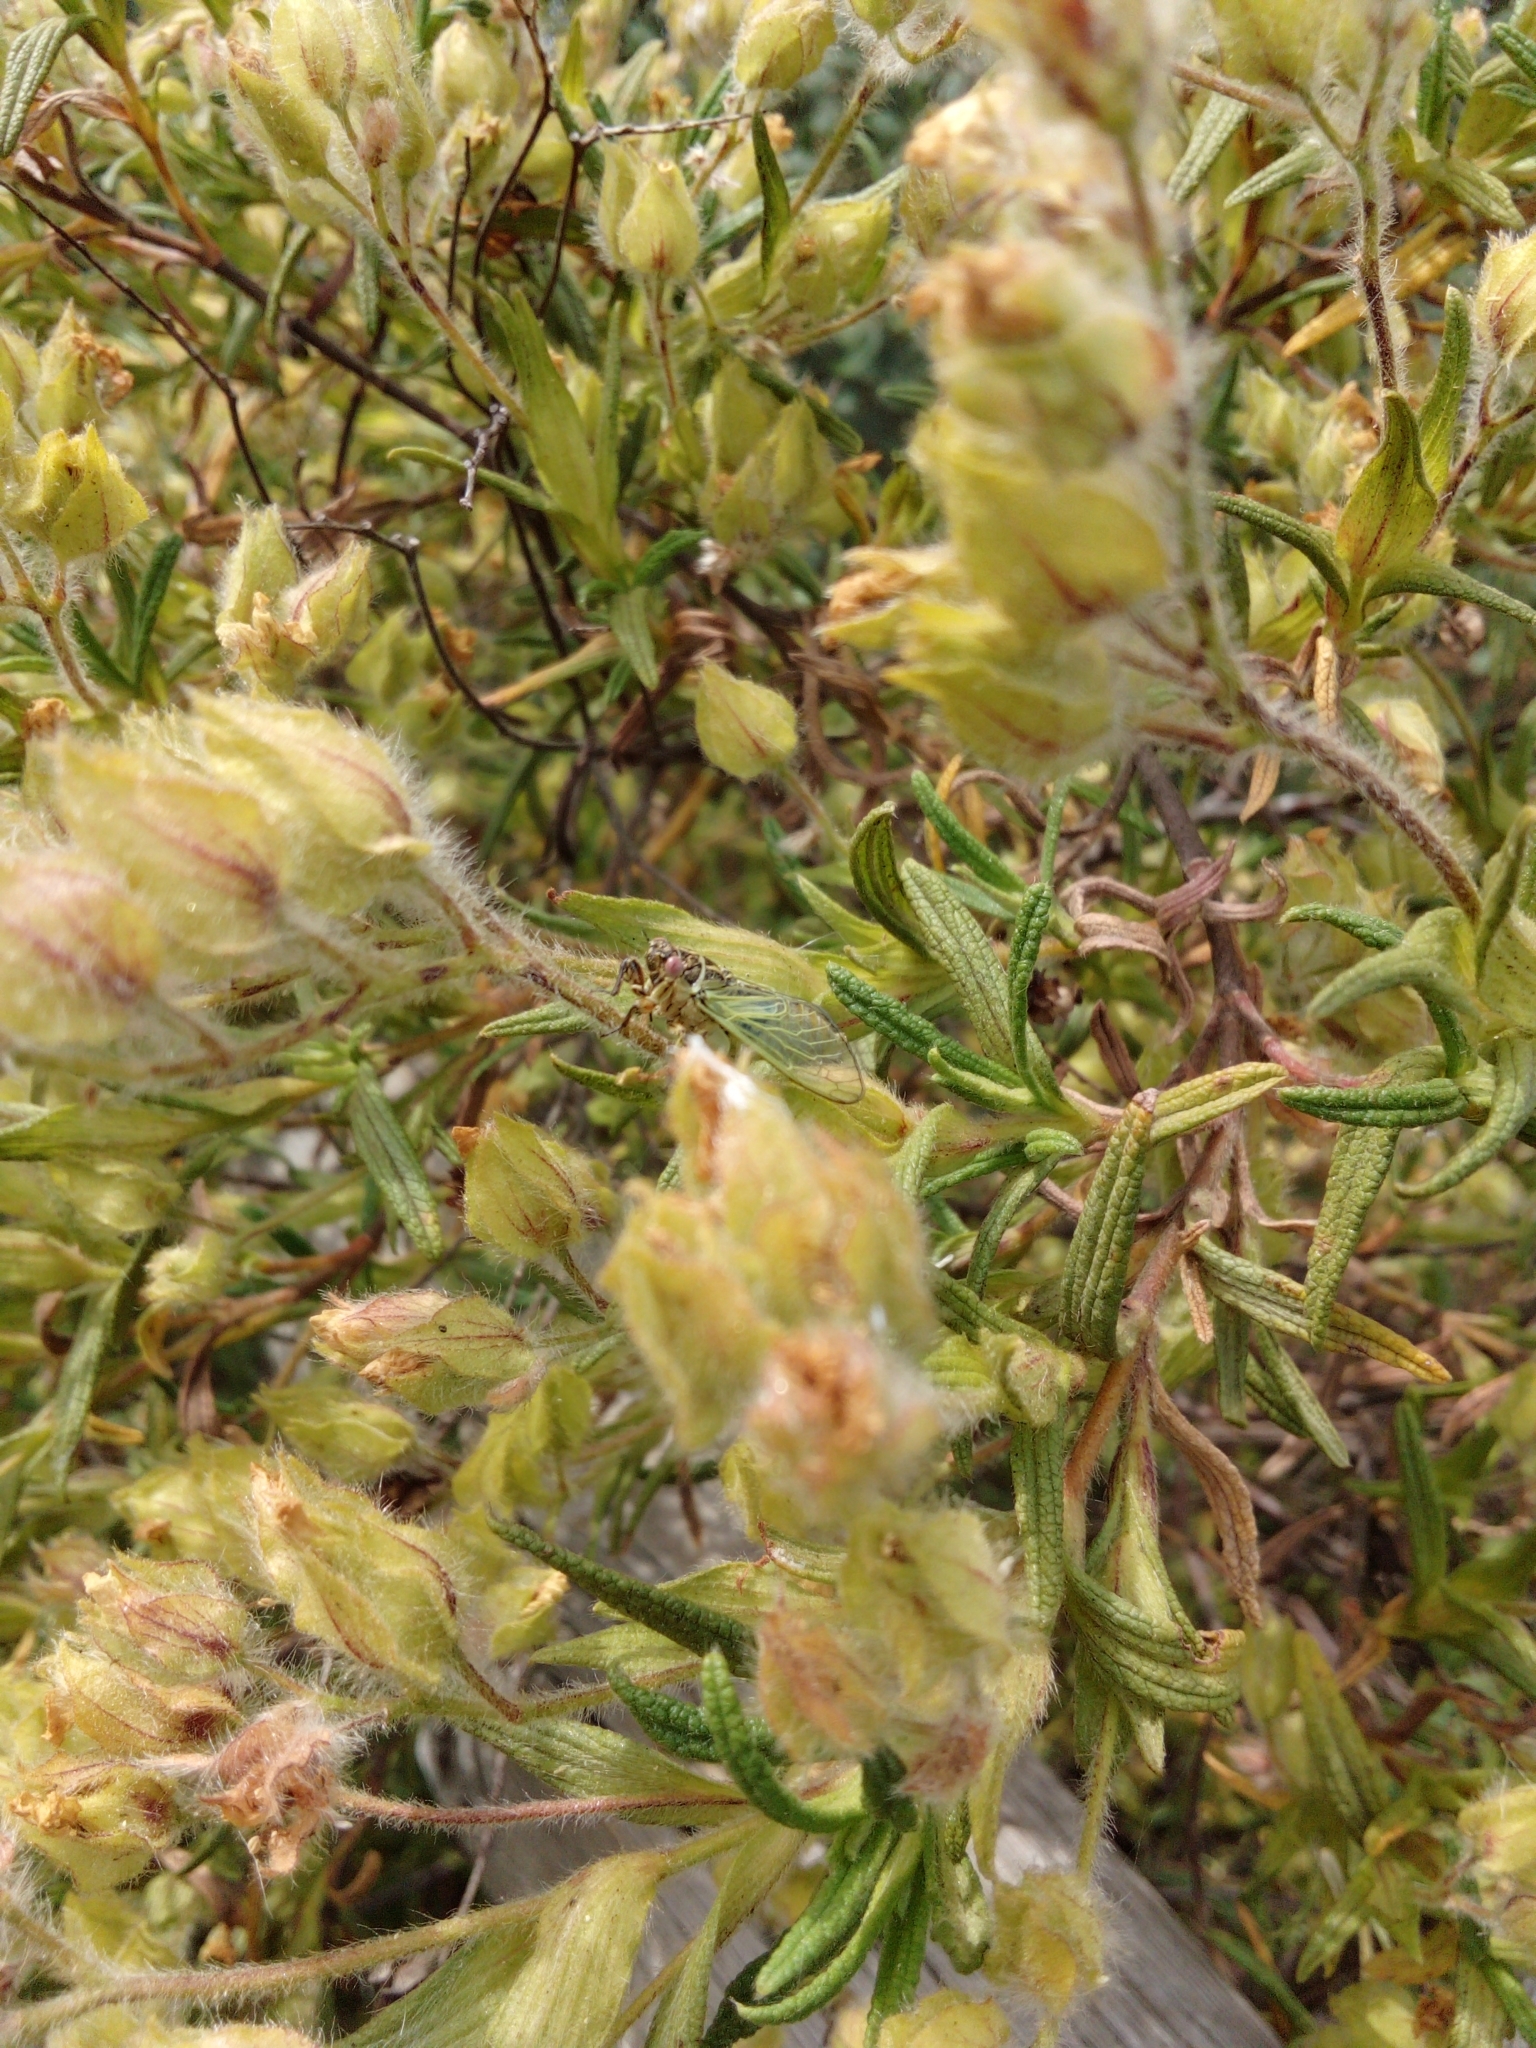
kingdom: Animalia
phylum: Arthropoda
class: Insecta
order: Hemiptera
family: Cicadidae
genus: Euryphara
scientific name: Euryphara contentei
